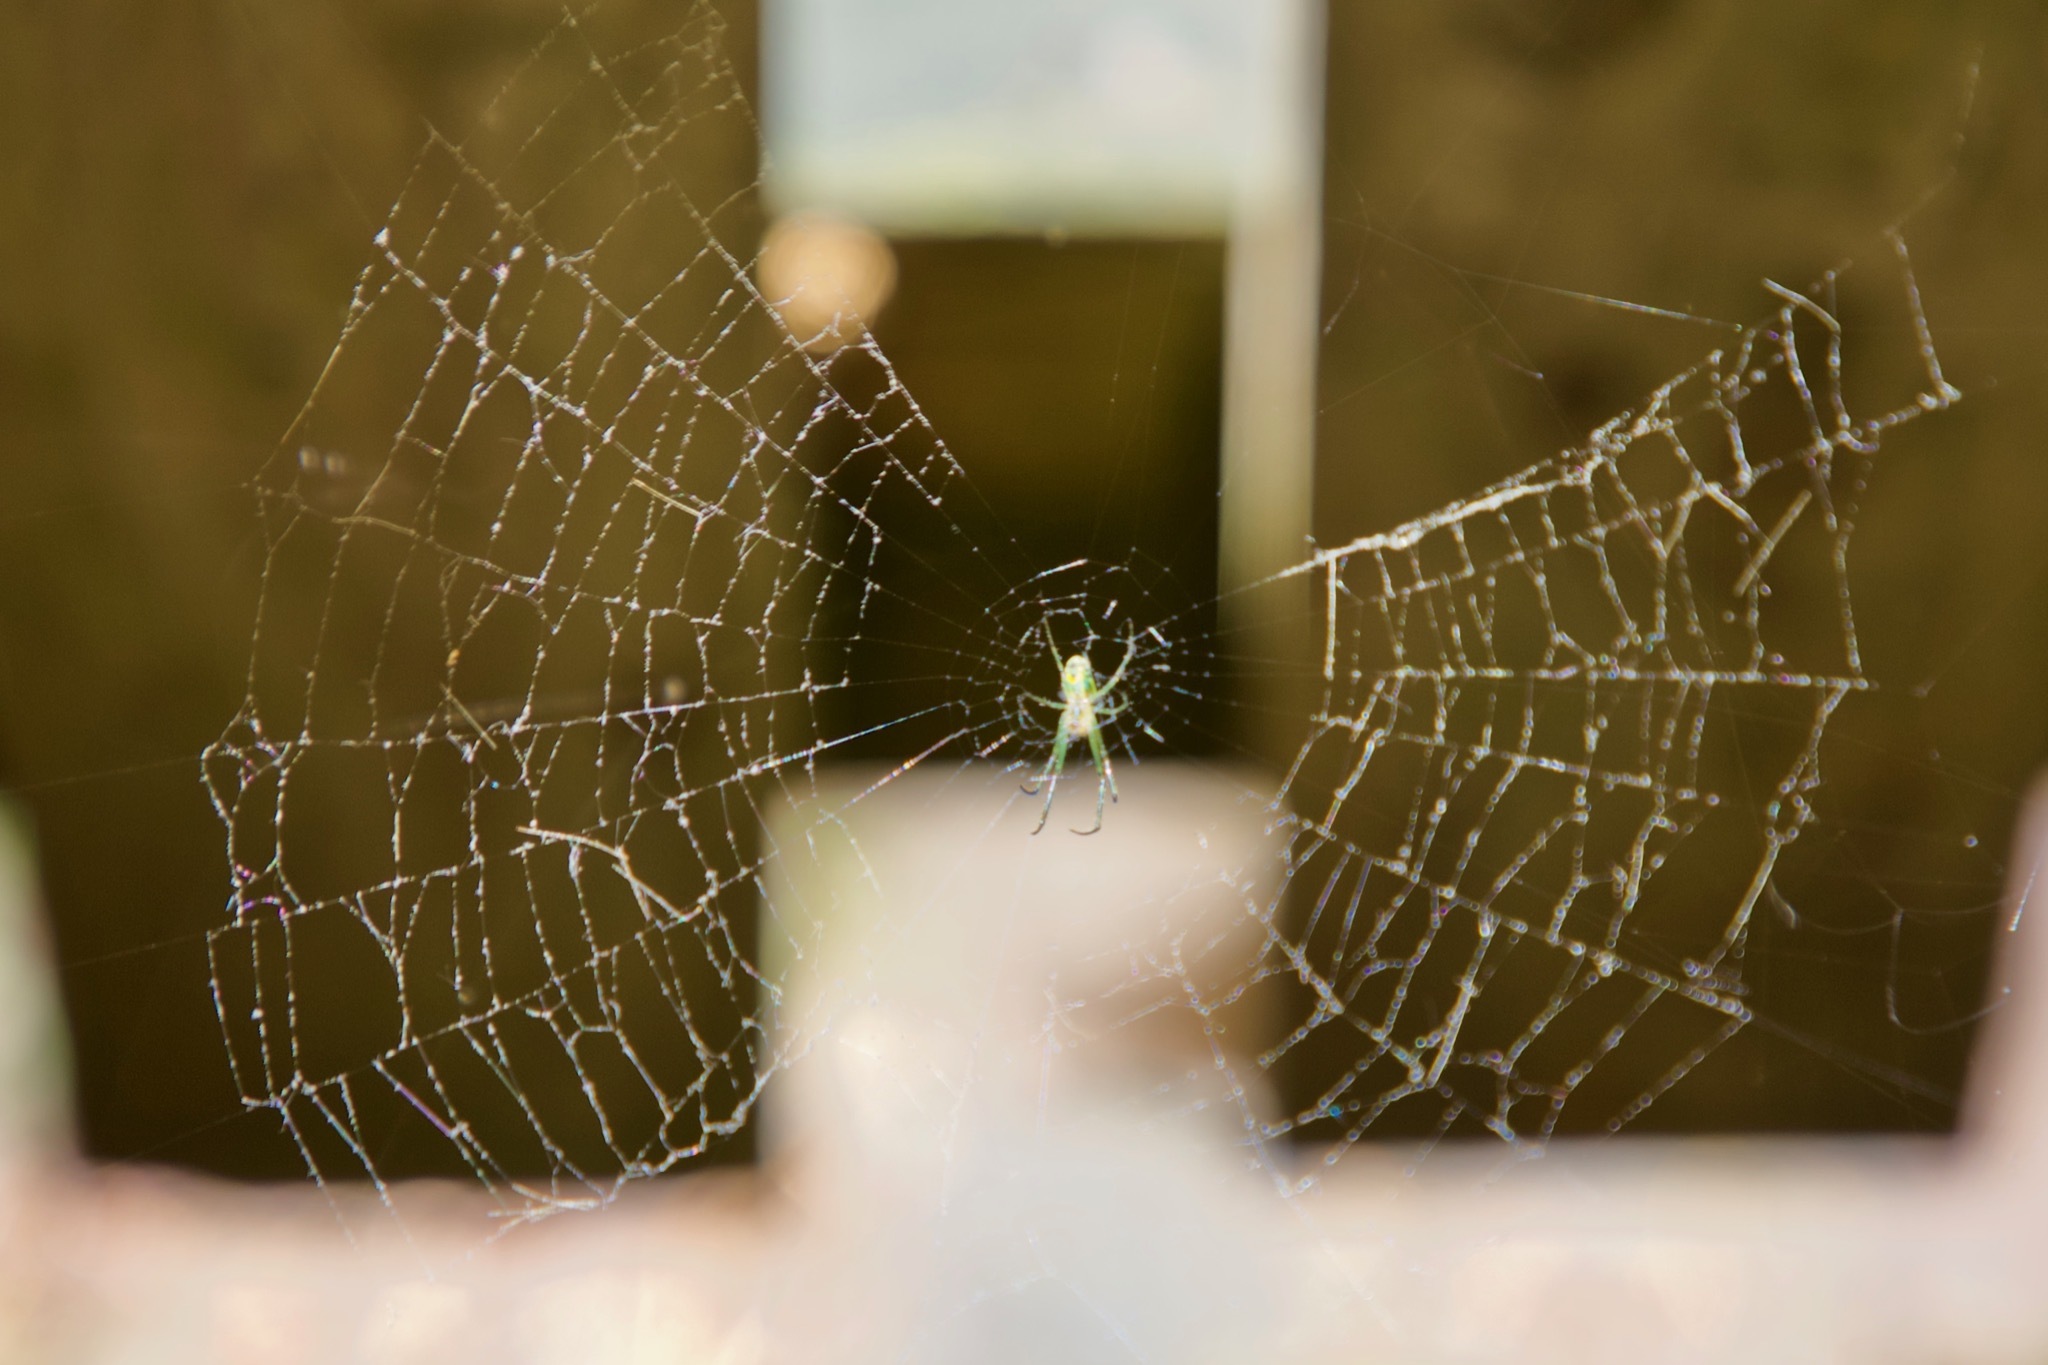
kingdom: Animalia
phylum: Arthropoda
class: Arachnida
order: Araneae
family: Tetragnathidae
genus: Leucauge
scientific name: Leucauge venusta
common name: Longjawed orb weavers
